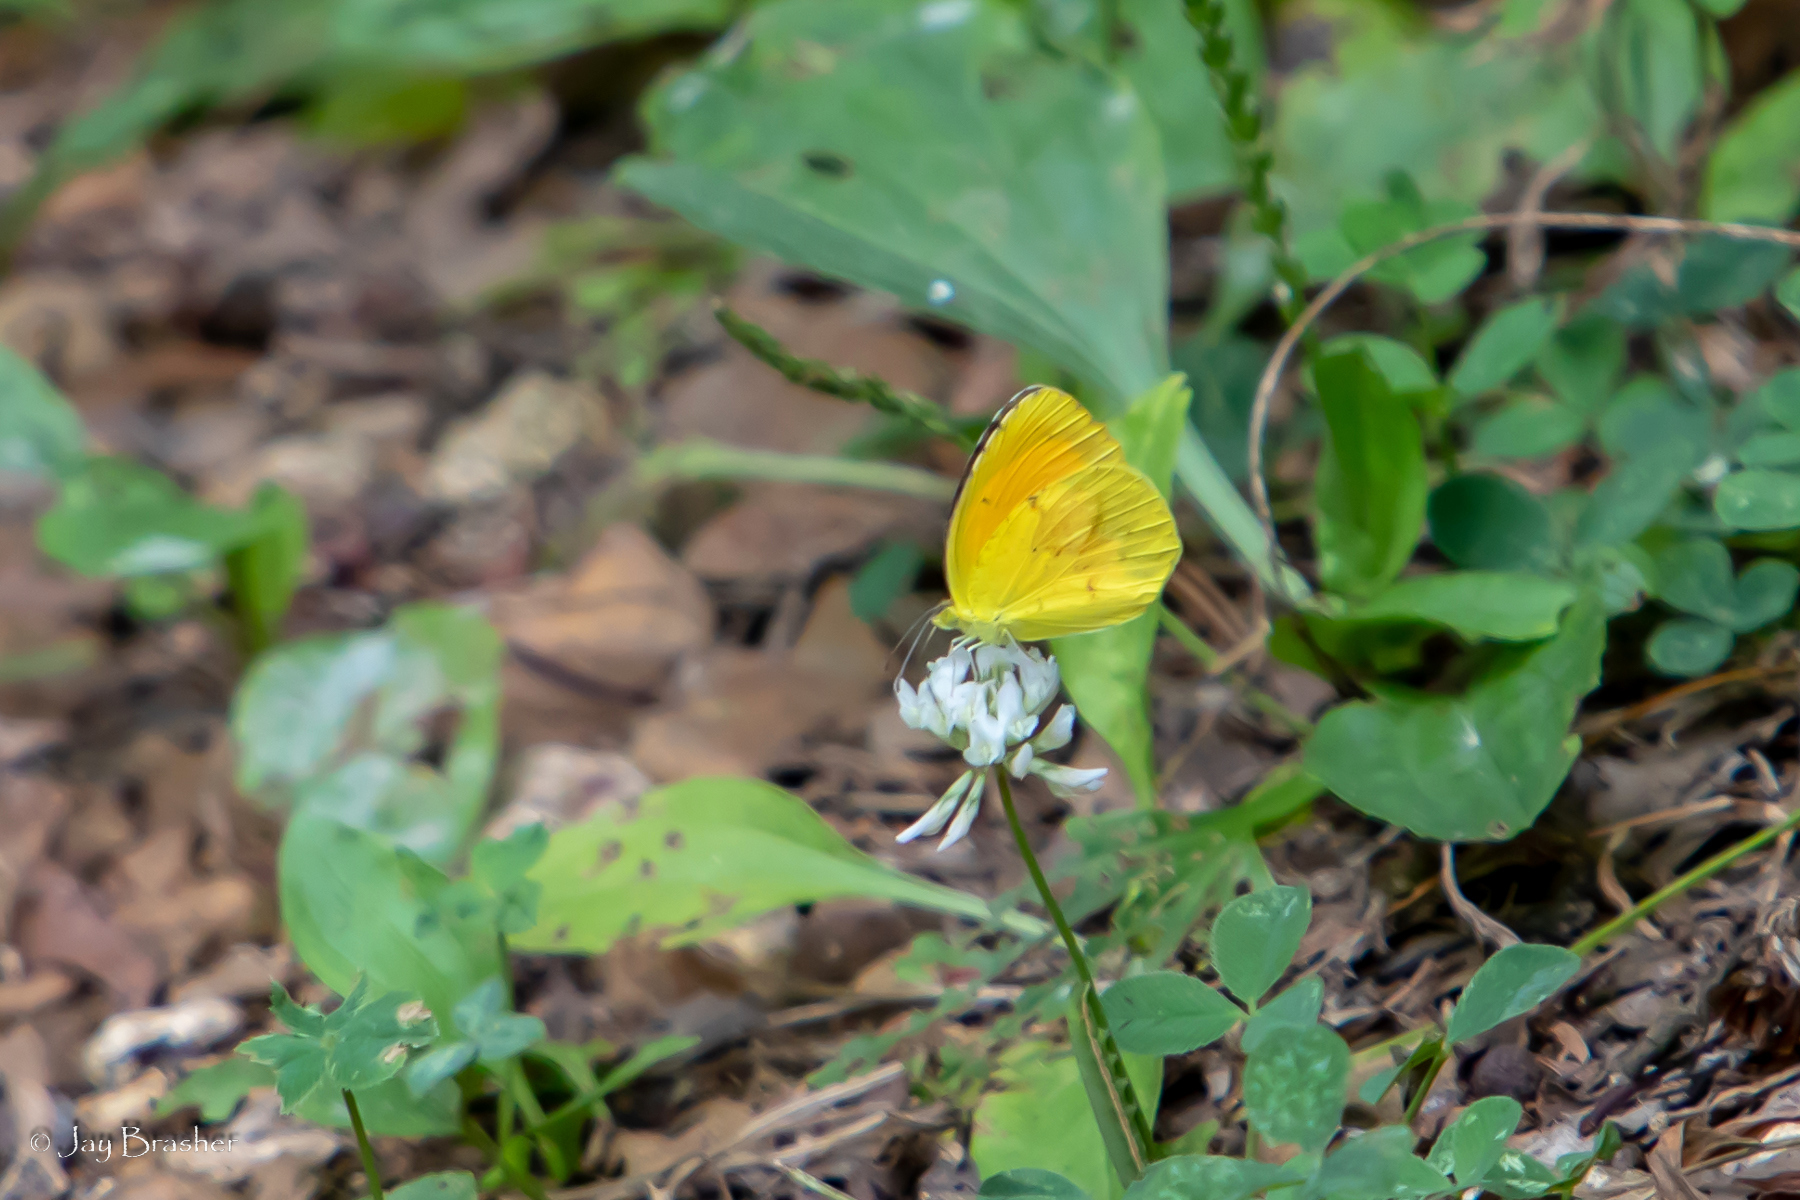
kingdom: Animalia
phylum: Arthropoda
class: Insecta
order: Lepidoptera
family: Pieridae
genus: Abaeis
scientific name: Abaeis nicippe
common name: Sleepy orange
